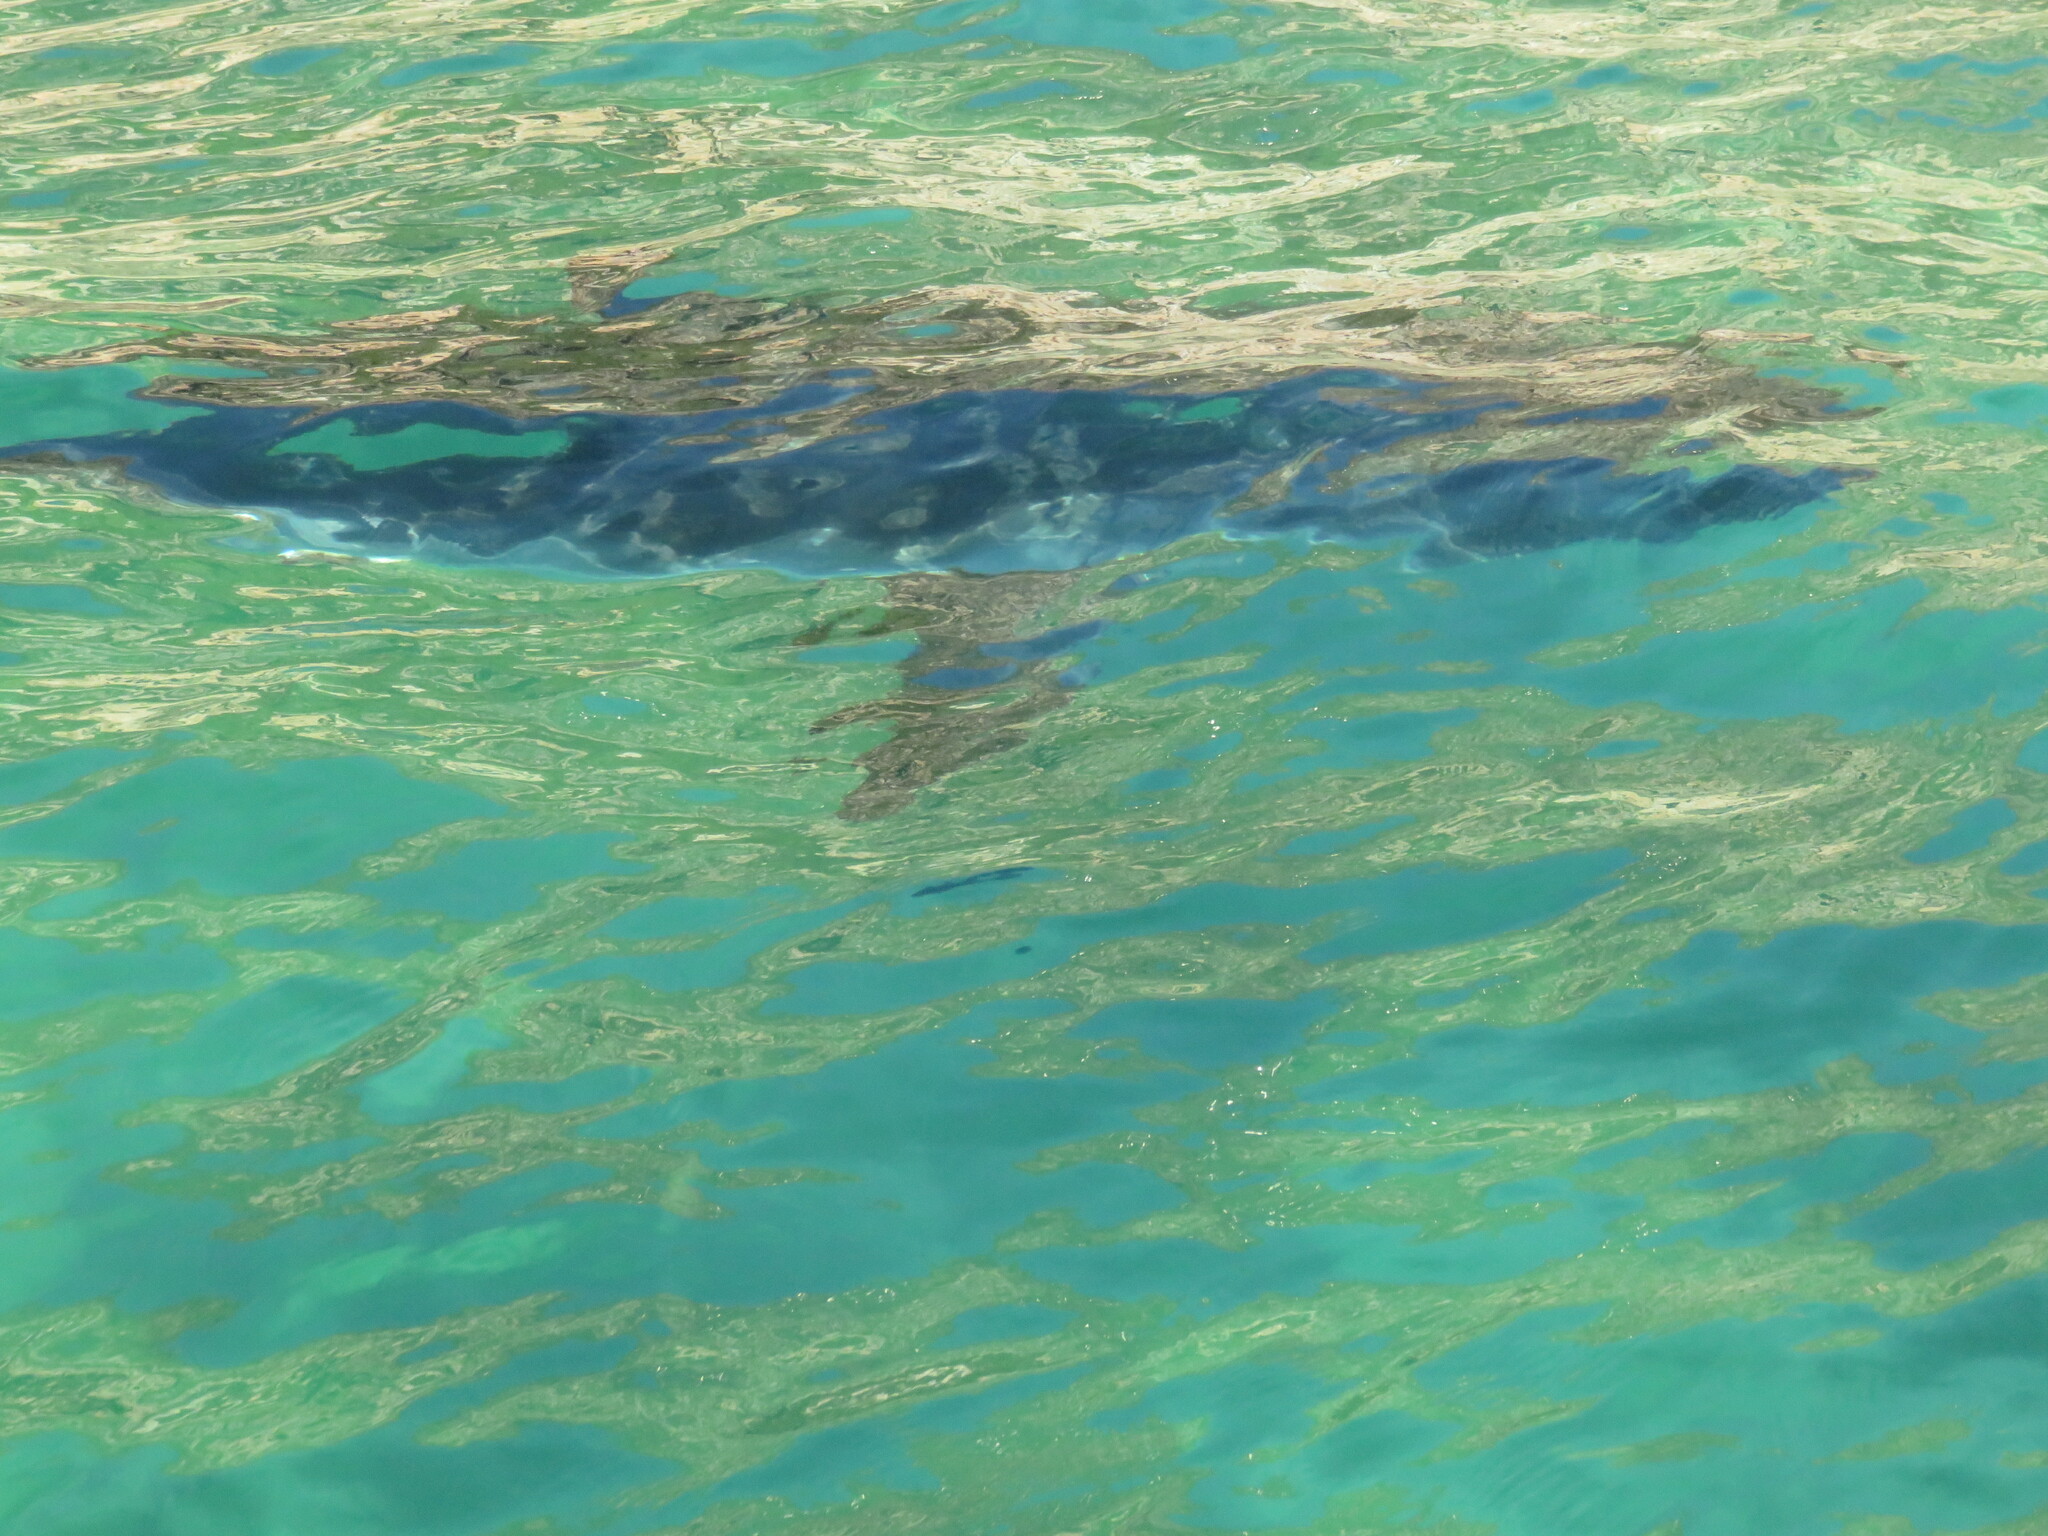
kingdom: Animalia
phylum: Chordata
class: Elasmobranchii
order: Lamniformes
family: Lamnidae
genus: Carcharodon
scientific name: Carcharodon carcharias
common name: Great white shark
